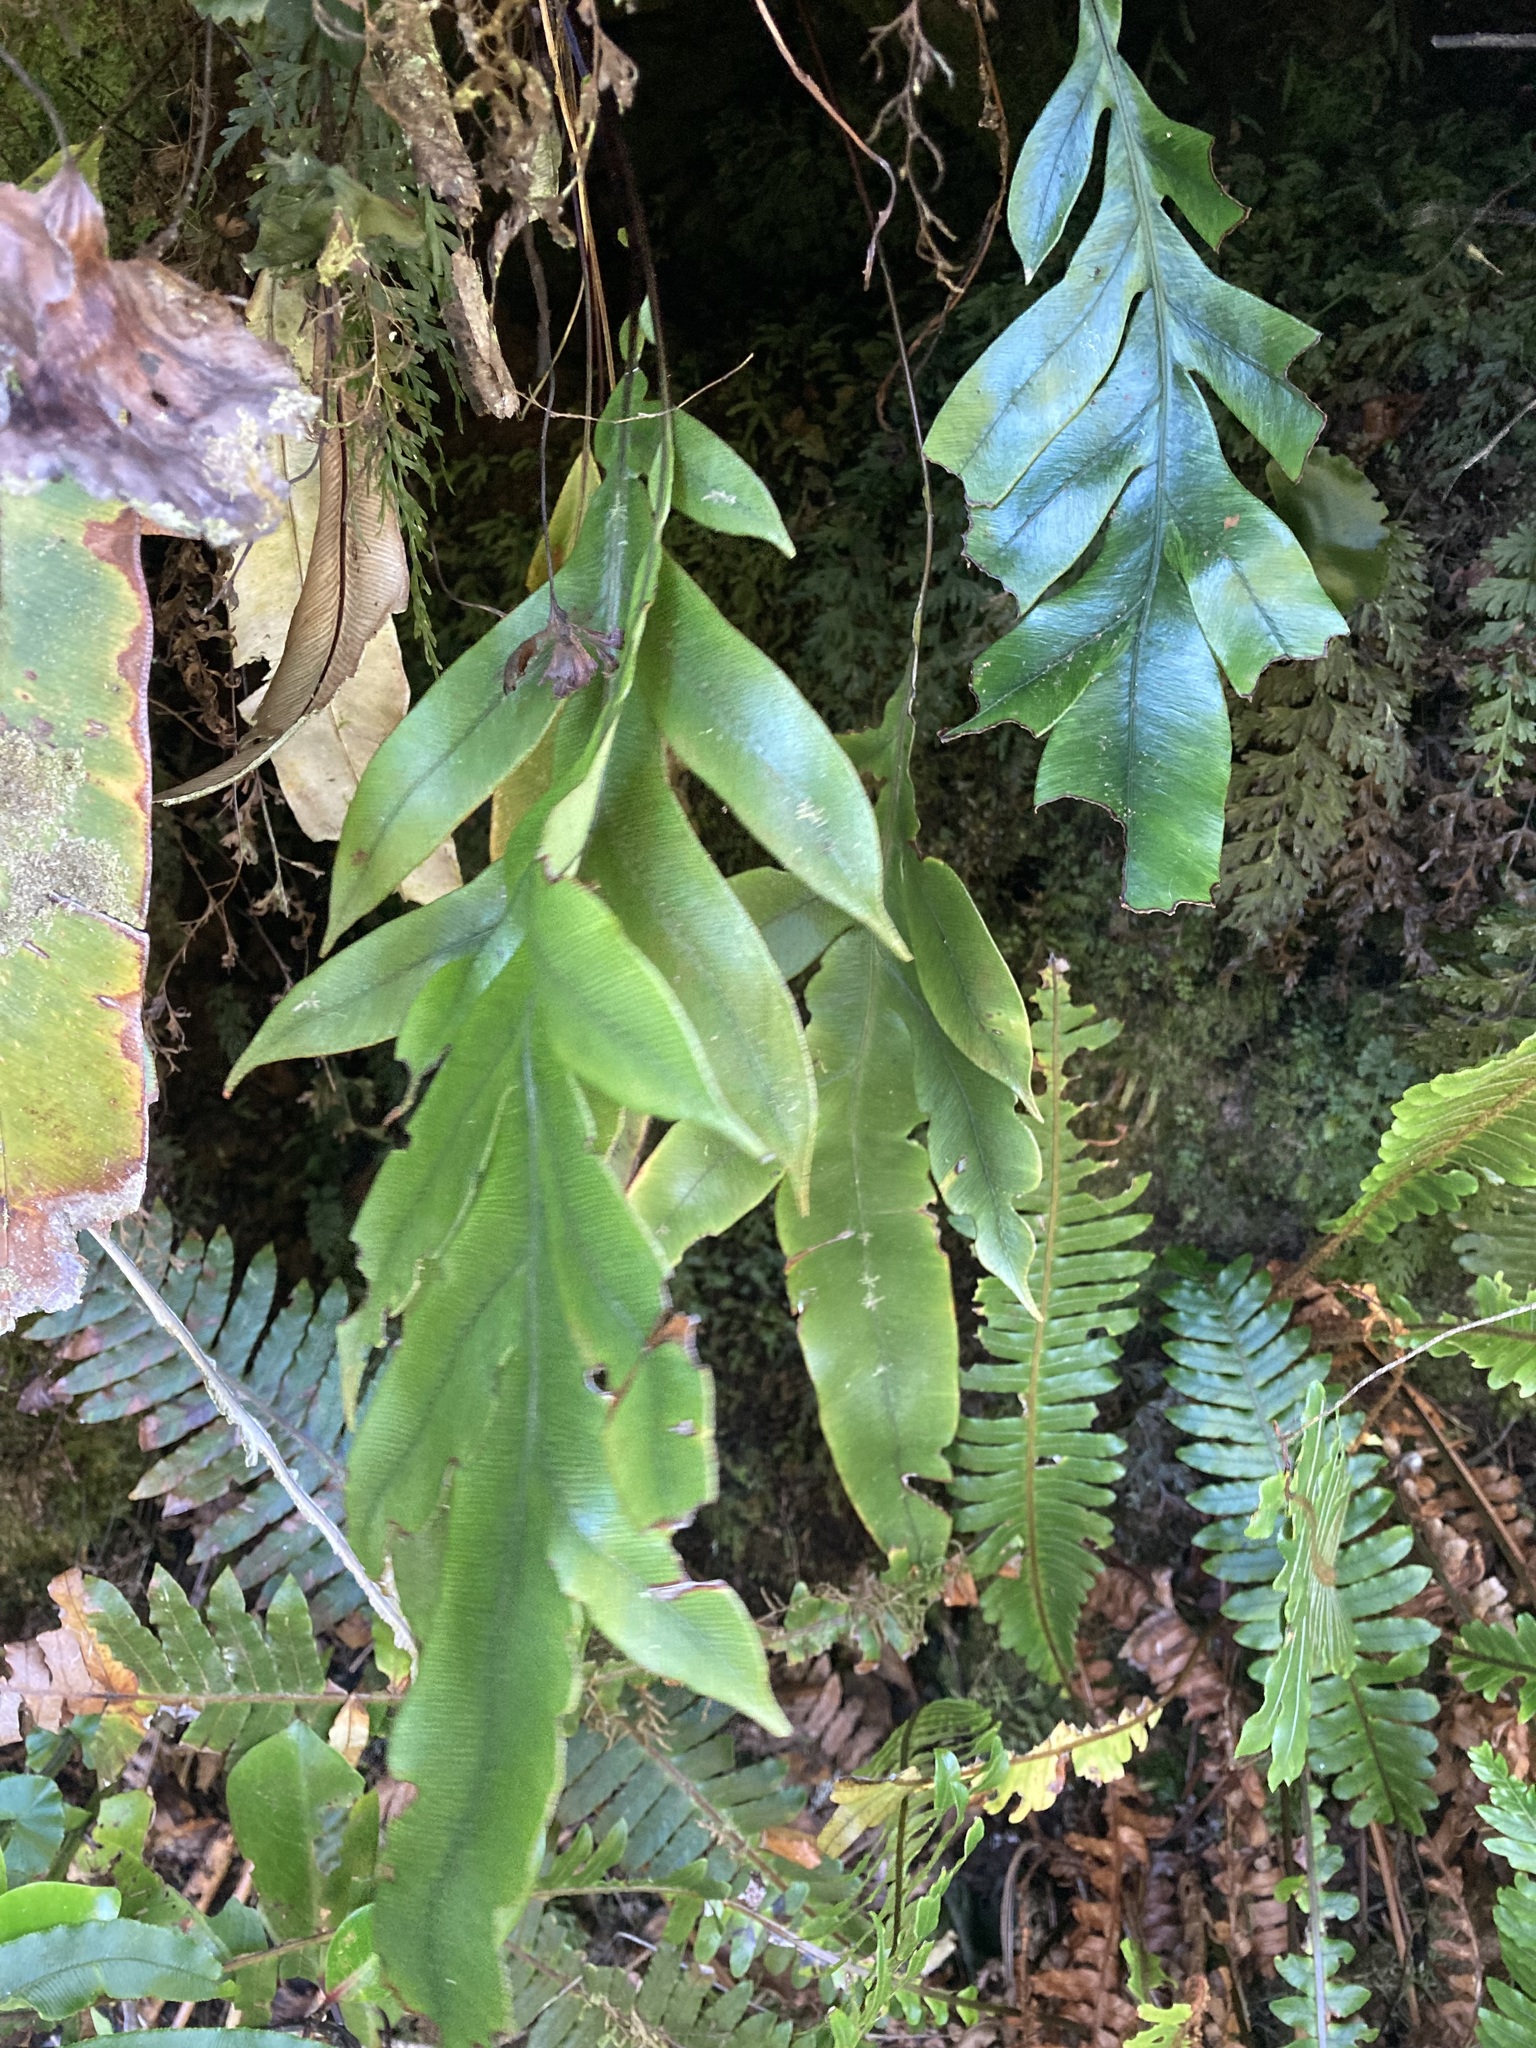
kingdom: Plantae
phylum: Tracheophyta
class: Polypodiopsida
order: Polypodiales
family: Blechnaceae
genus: Austroblechnum
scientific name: Austroblechnum colensoi
